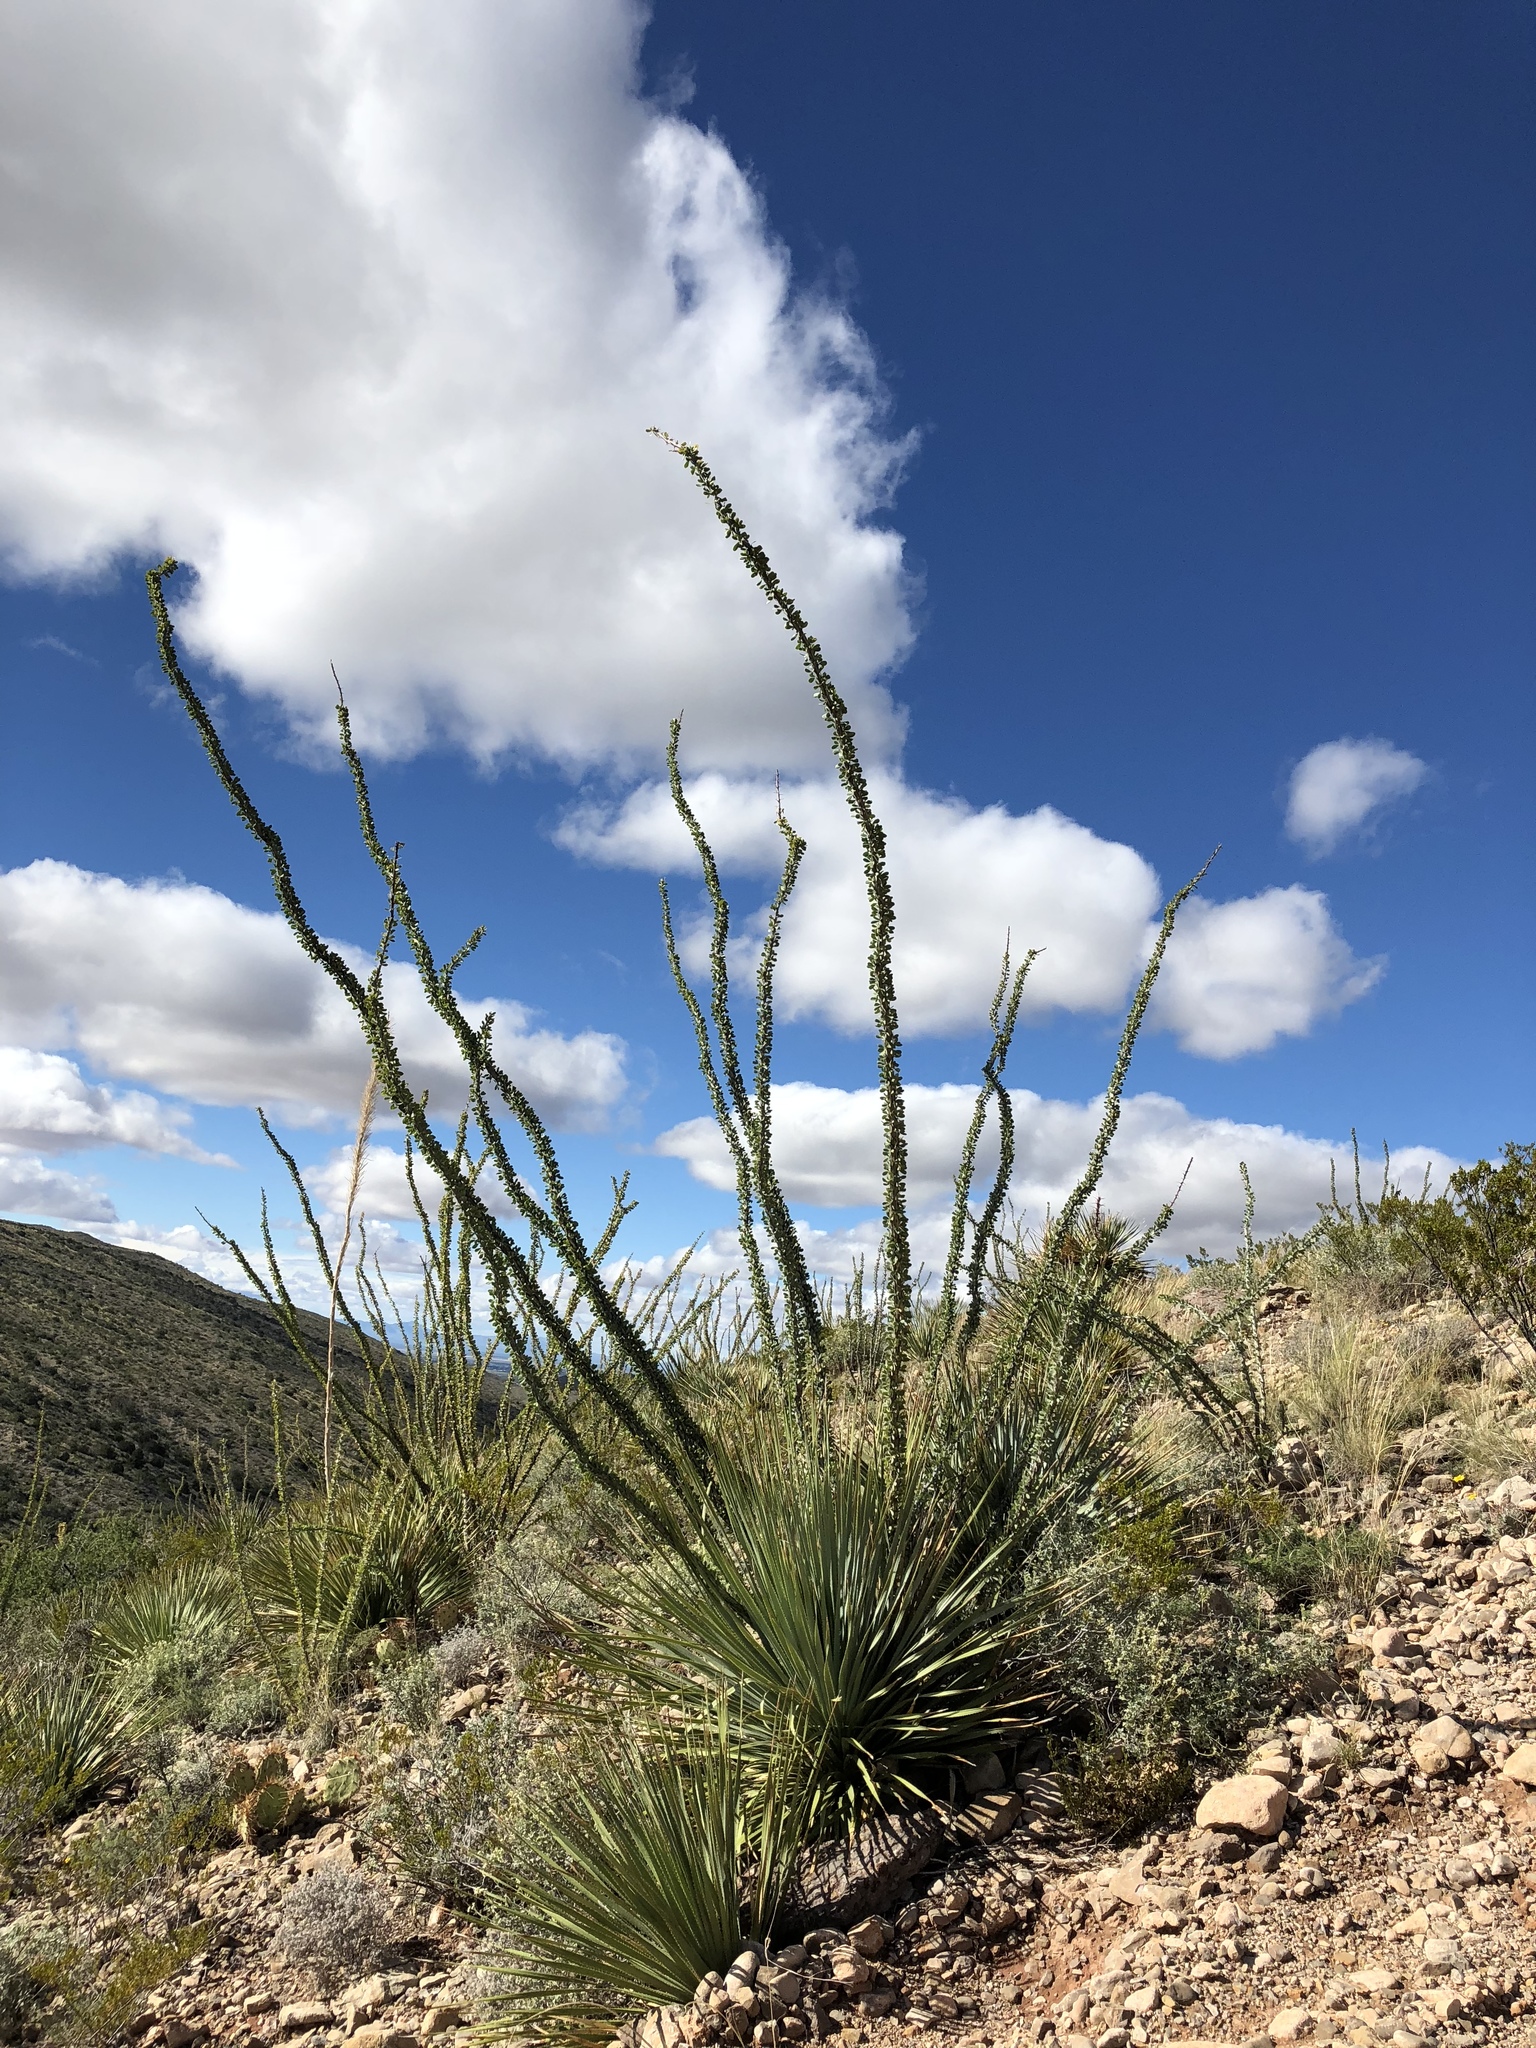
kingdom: Plantae
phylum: Tracheophyta
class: Magnoliopsida
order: Ericales
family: Fouquieriaceae
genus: Fouquieria
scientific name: Fouquieria splendens
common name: Vine-cactus
